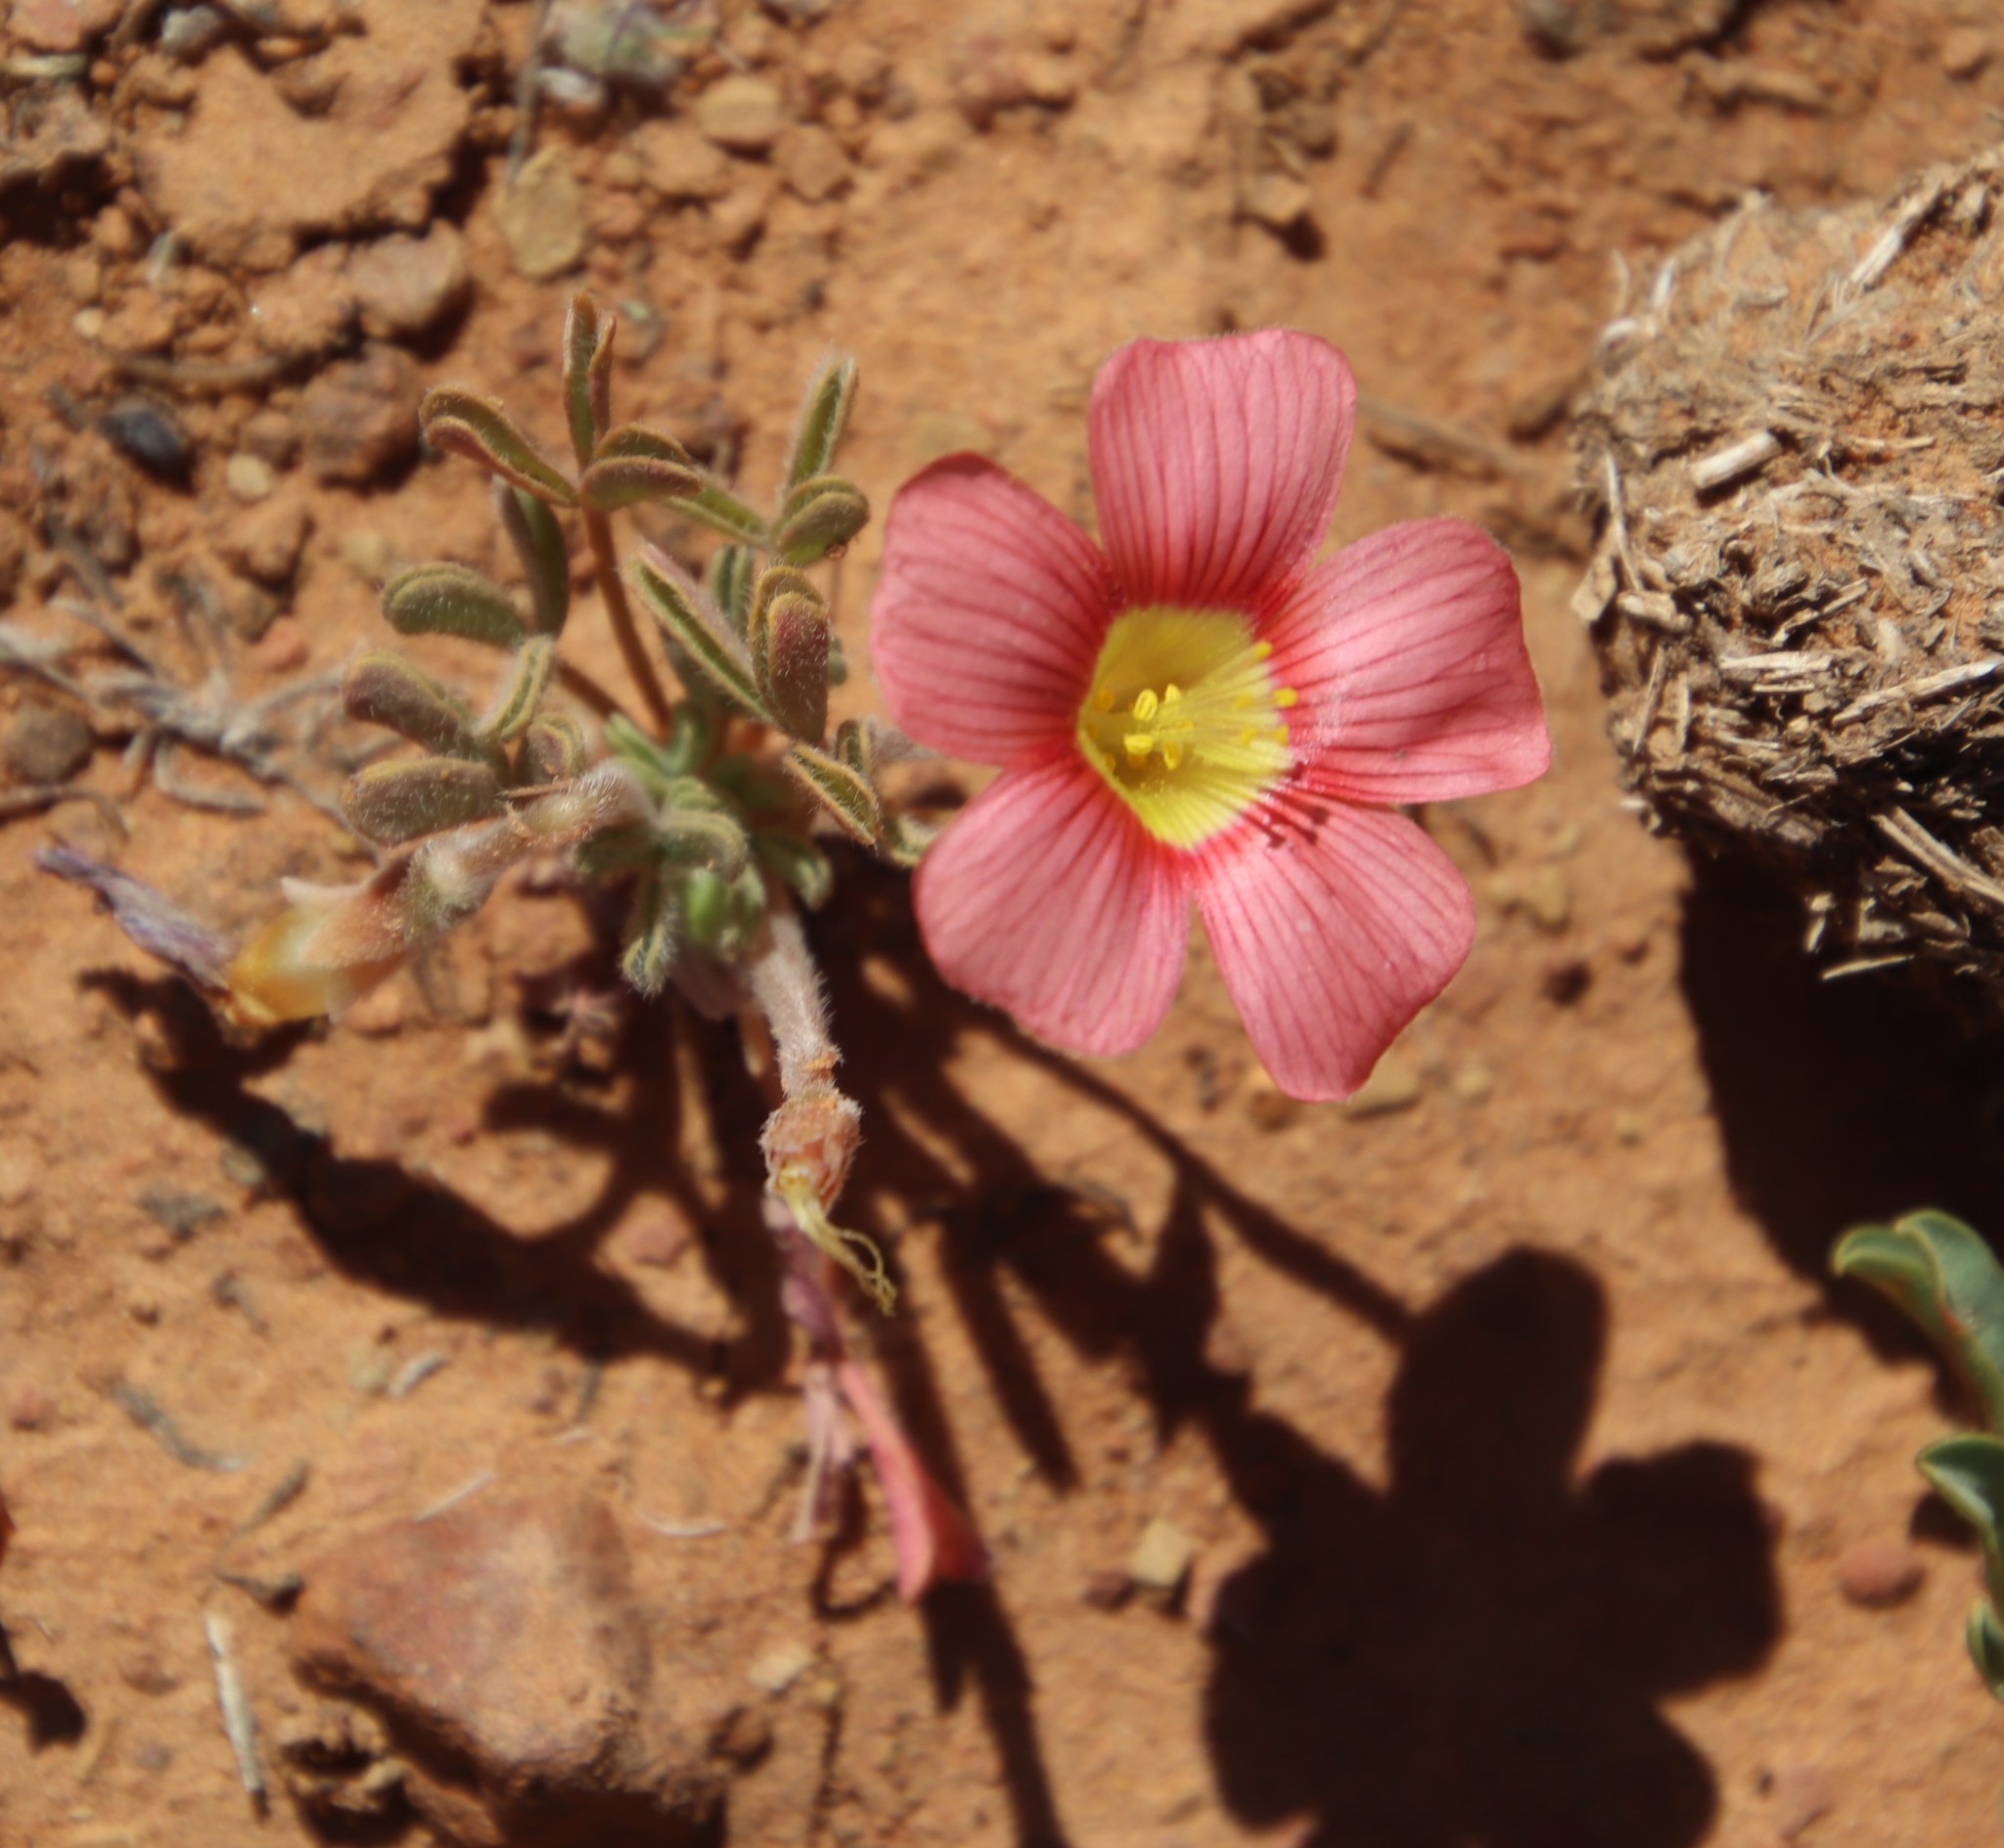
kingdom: Plantae
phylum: Tracheophyta
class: Magnoliopsida
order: Oxalidales
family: Oxalidaceae
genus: Oxalis
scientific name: Oxalis obtusa
